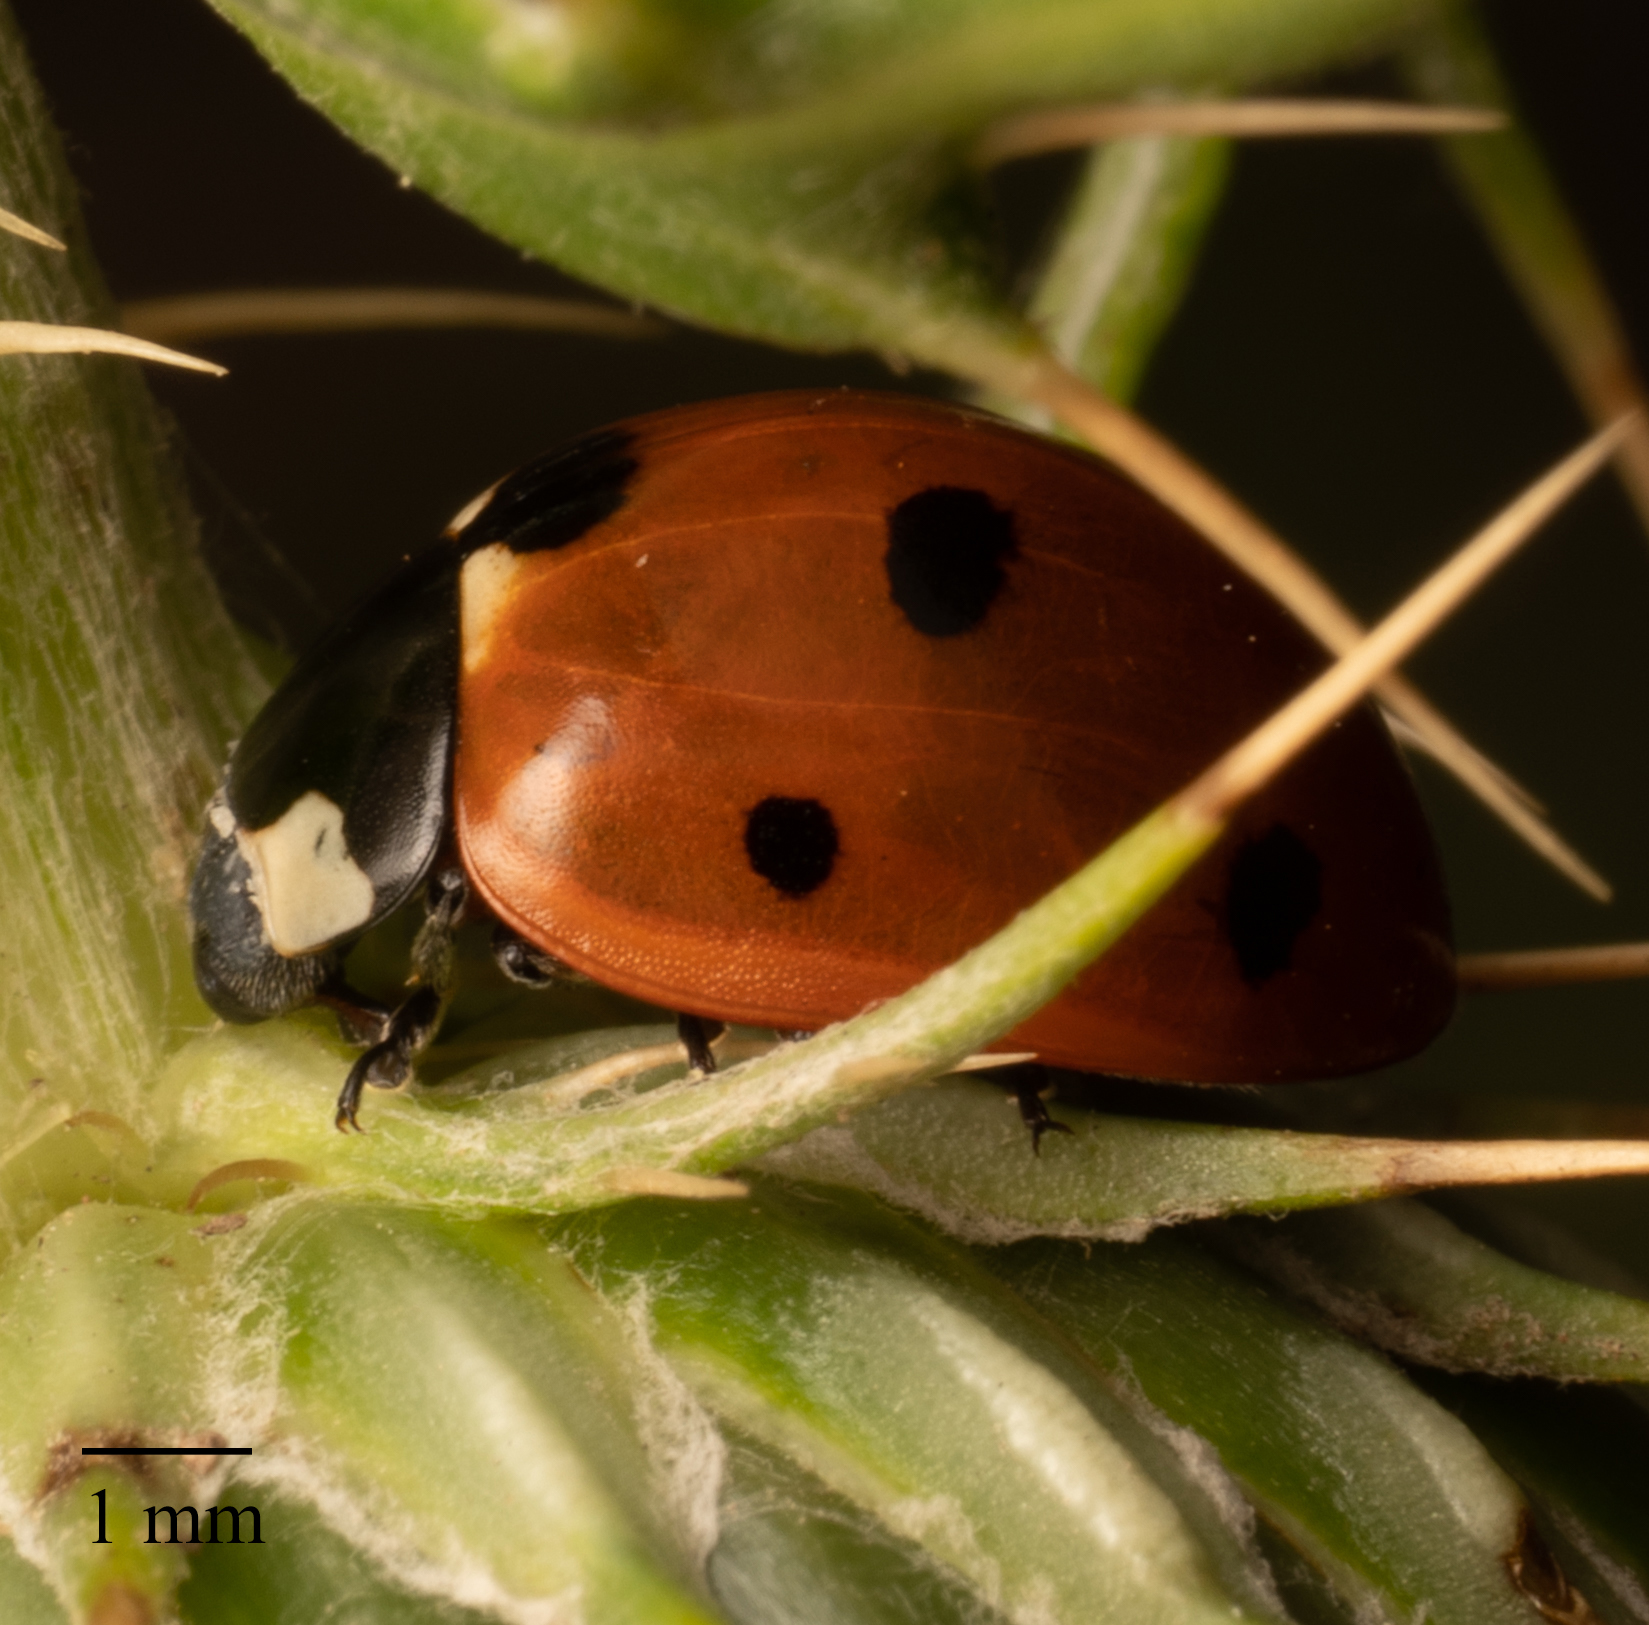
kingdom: Animalia
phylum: Arthropoda
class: Insecta
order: Coleoptera
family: Coccinellidae
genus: Coccinella
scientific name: Coccinella septempunctata
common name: Sevenspotted lady beetle
